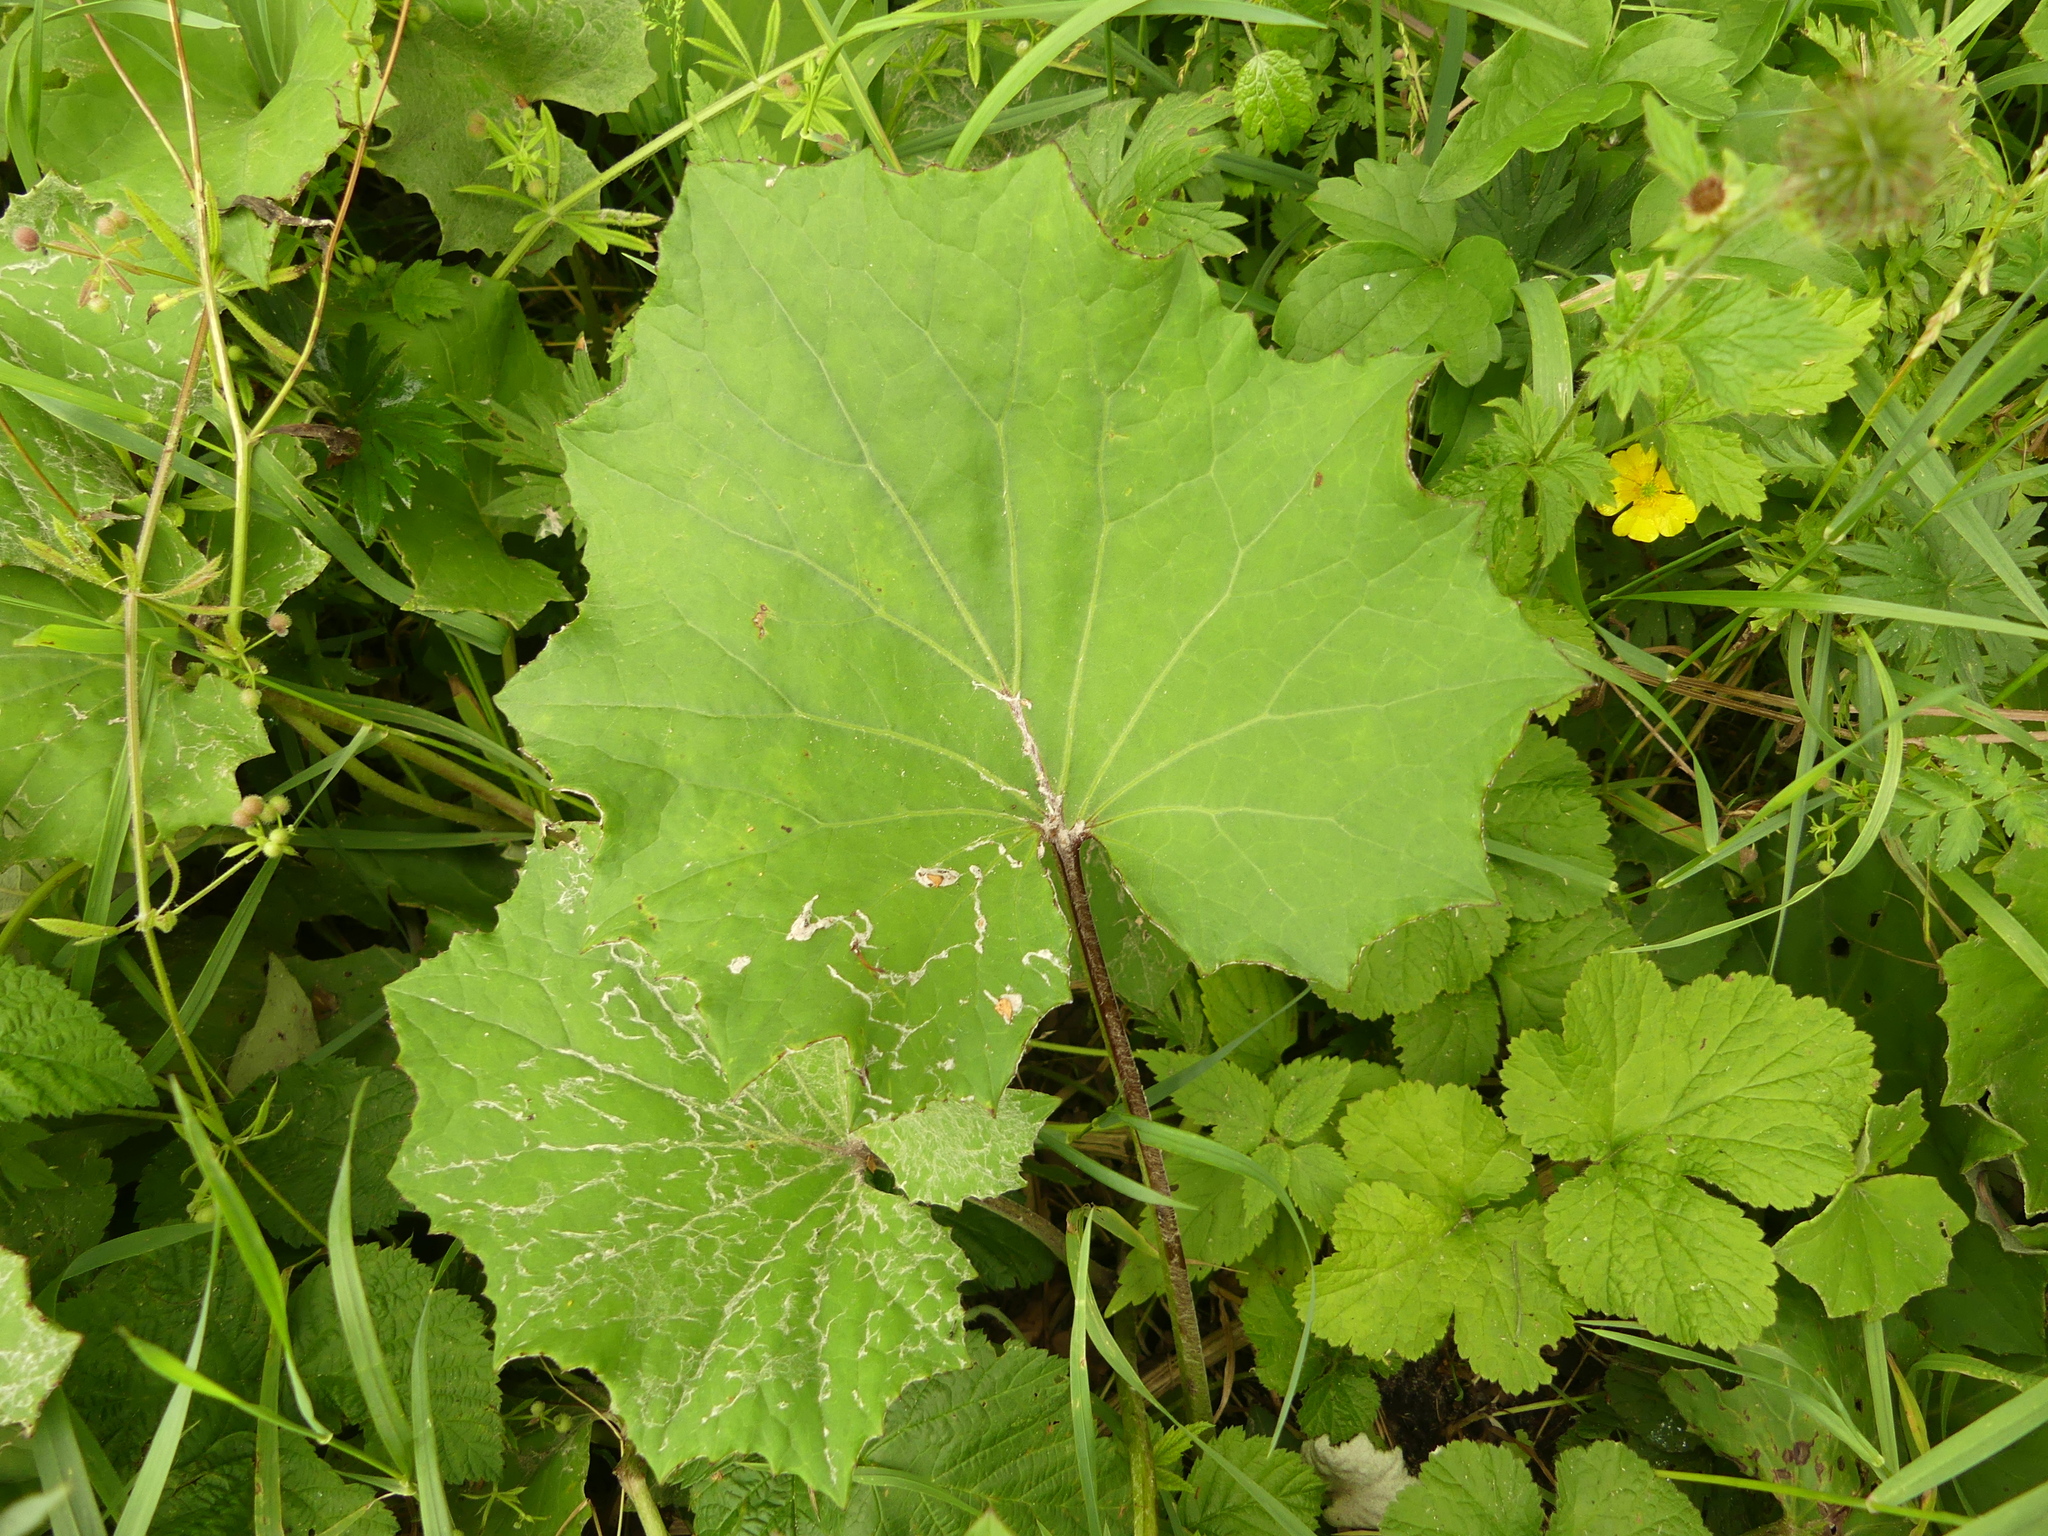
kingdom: Plantae
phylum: Tracheophyta
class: Magnoliopsida
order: Asterales
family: Asteraceae
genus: Tussilago
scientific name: Tussilago farfara
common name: Coltsfoot
